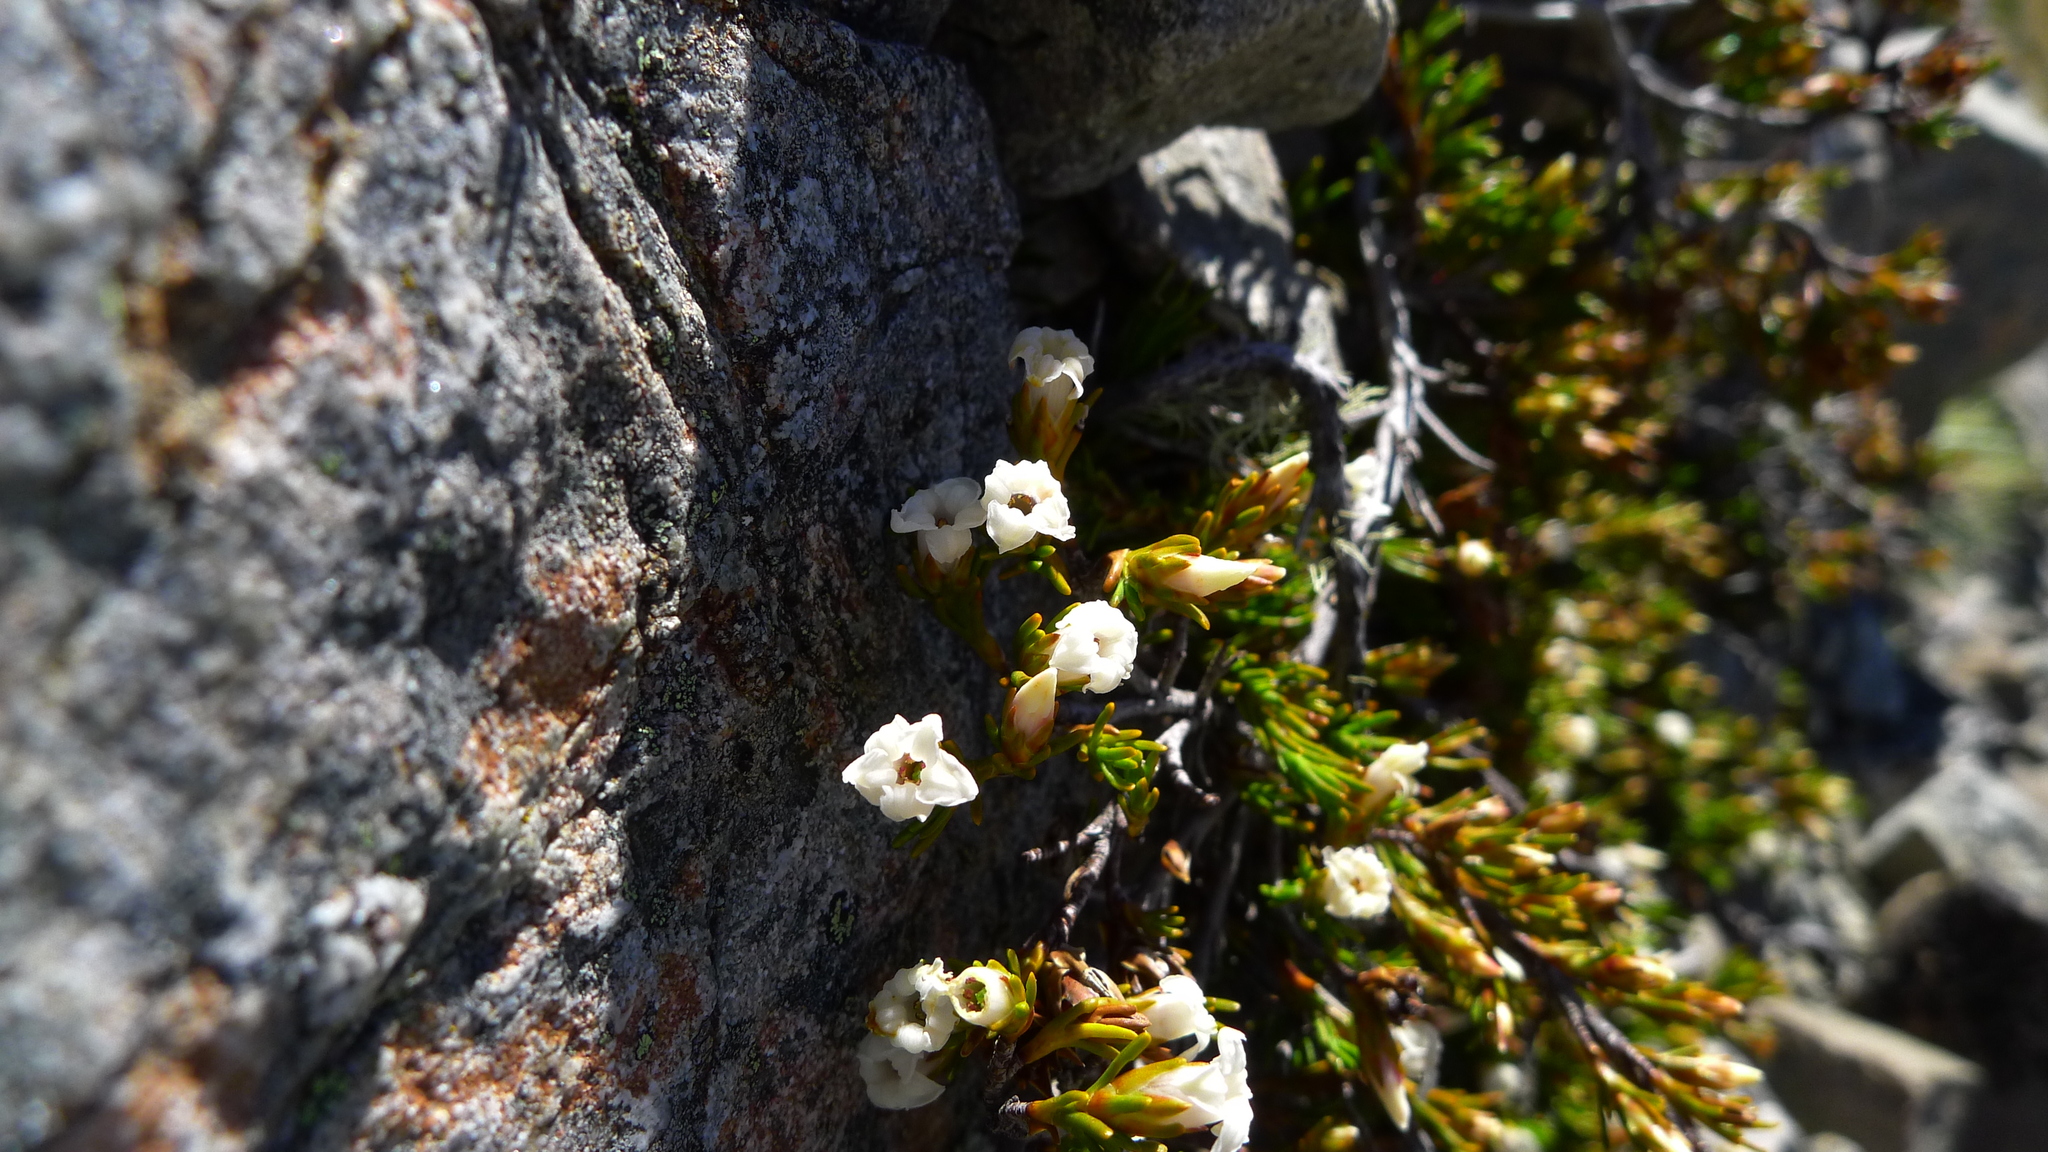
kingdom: Plantae
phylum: Tracheophyta
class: Magnoliopsida
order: Ericales
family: Ericaceae
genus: Dracophyllum
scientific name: Dracophyllum pronum
